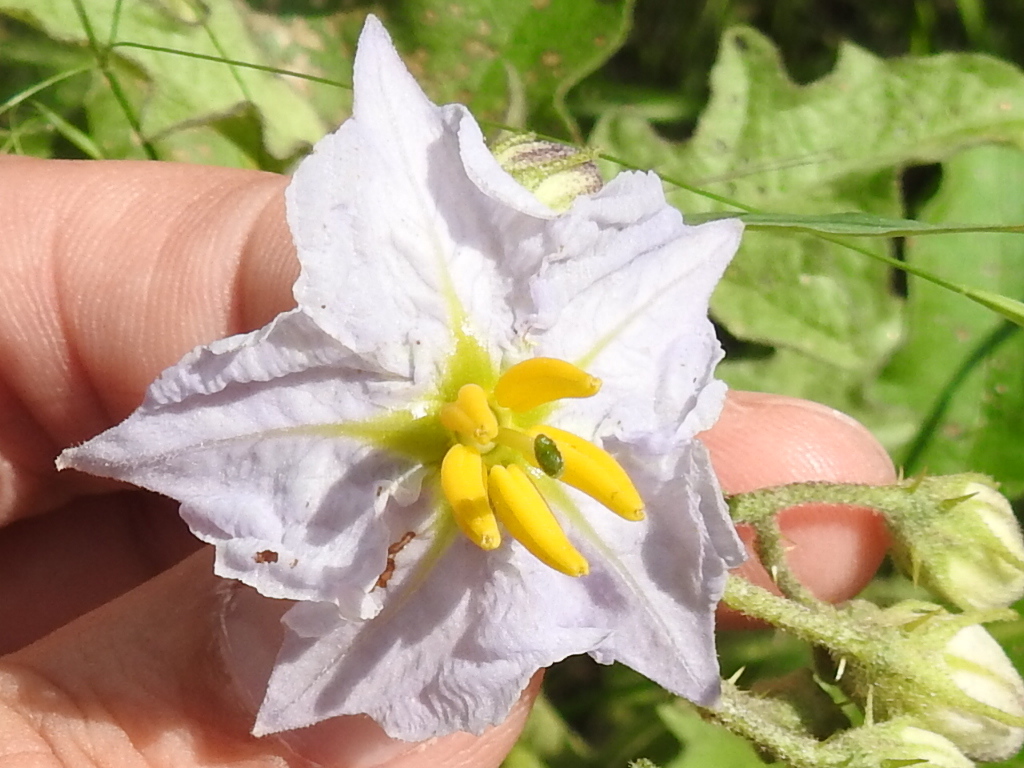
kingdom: Plantae
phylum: Tracheophyta
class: Magnoliopsida
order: Solanales
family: Solanaceae
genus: Solanum
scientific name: Solanum dimidiatum
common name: Carolina horse-nettle
